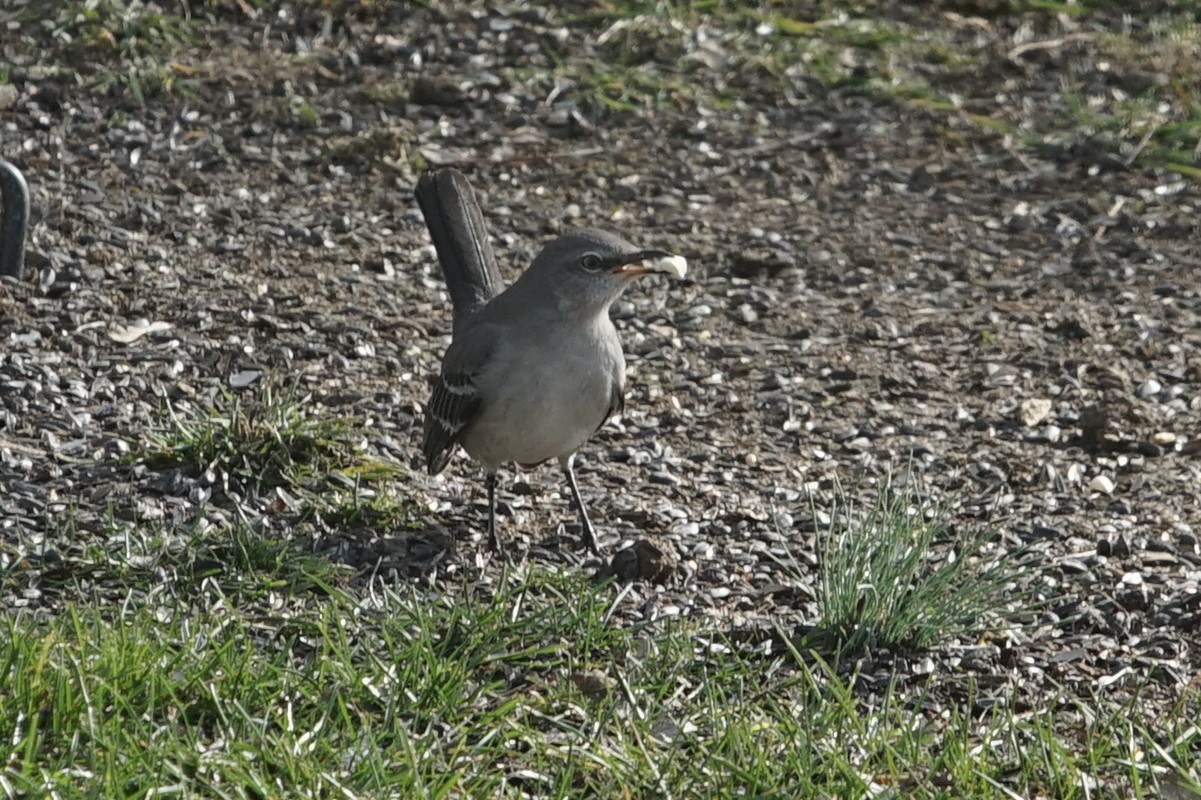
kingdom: Animalia
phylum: Chordata
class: Aves
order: Passeriformes
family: Mimidae
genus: Mimus
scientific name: Mimus polyglottos
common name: Northern mockingbird
